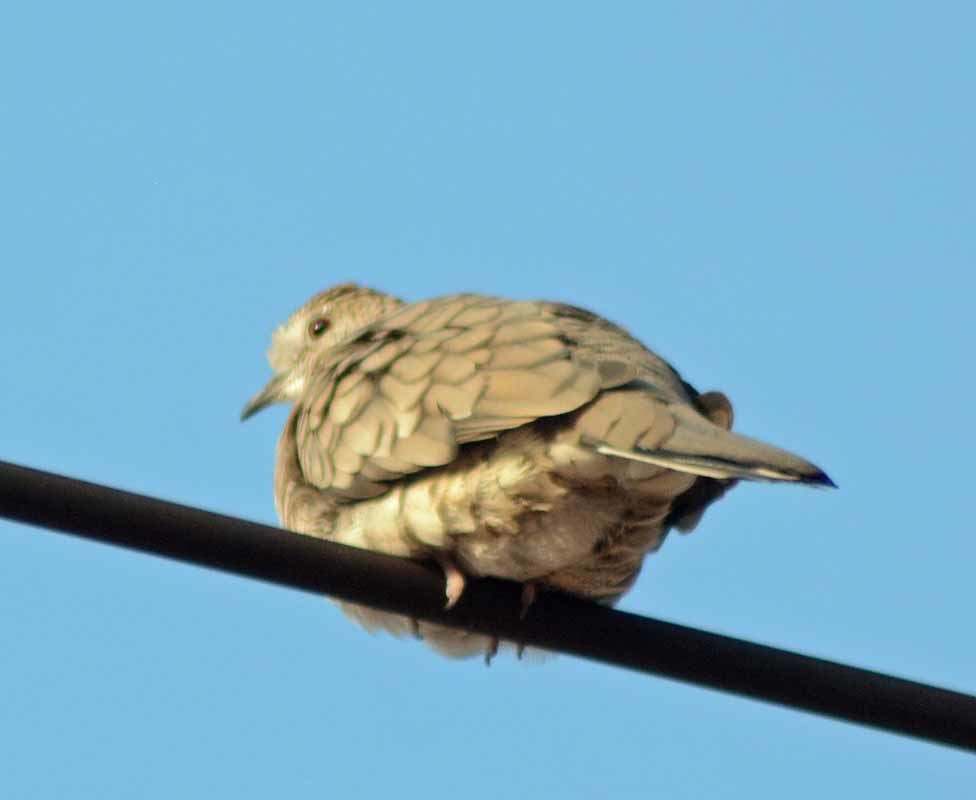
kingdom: Animalia
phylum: Chordata
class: Aves
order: Columbiformes
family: Columbidae
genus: Columbina
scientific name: Columbina inca
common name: Inca dove
